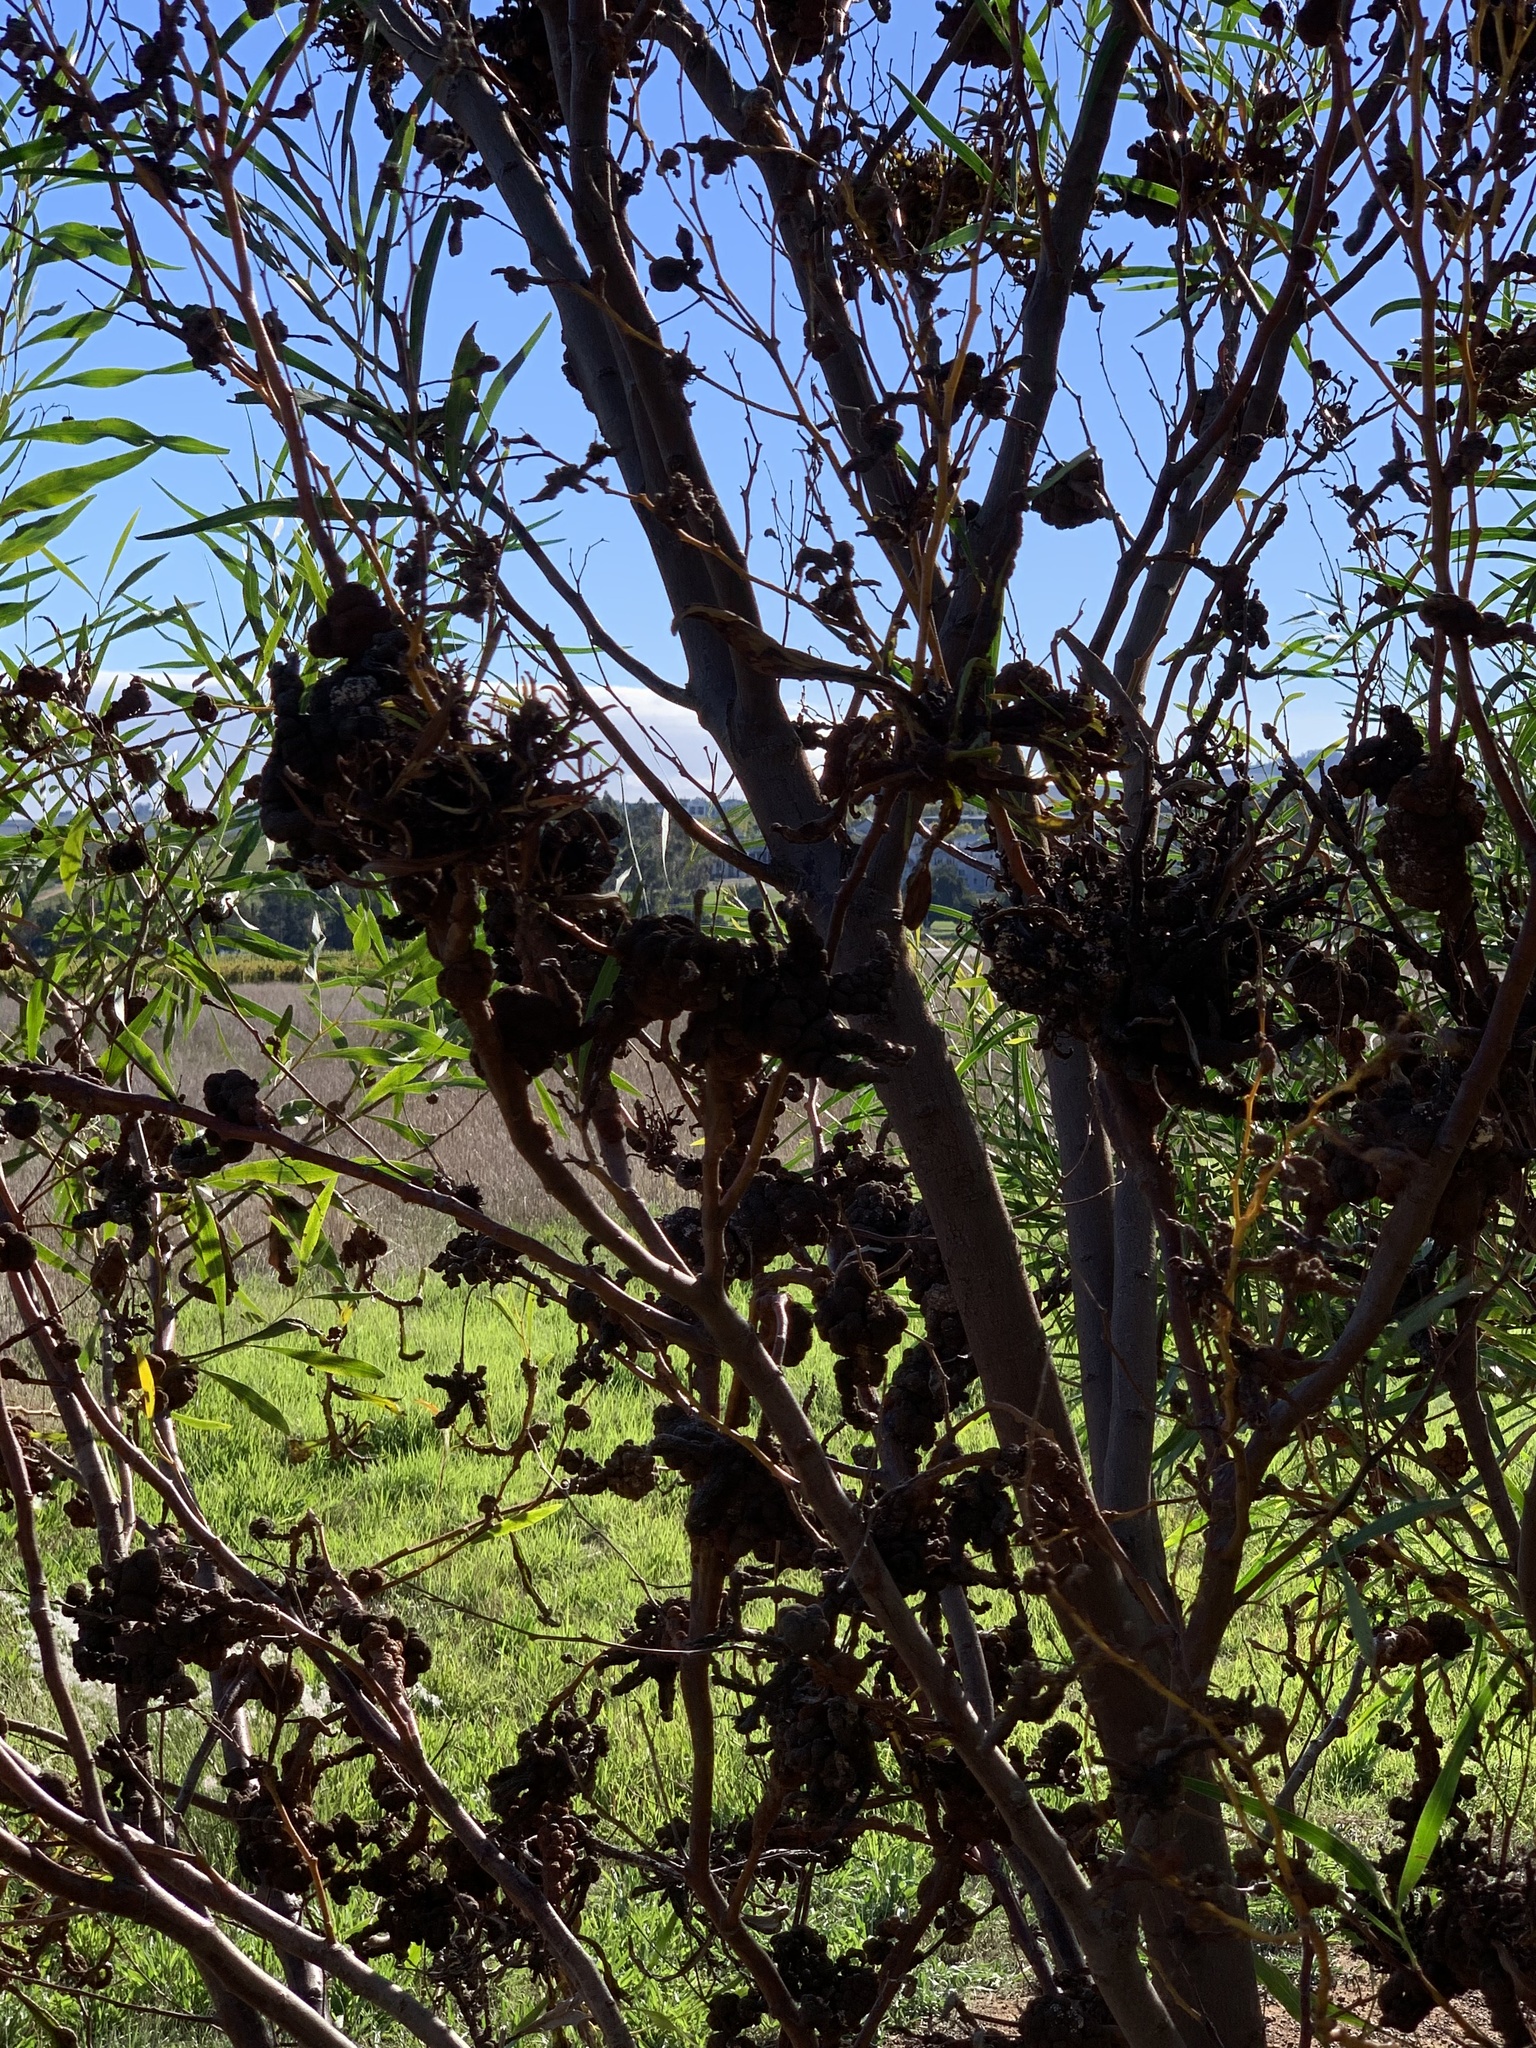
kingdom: Plantae
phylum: Tracheophyta
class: Magnoliopsida
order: Fabales
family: Fabaceae
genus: Acacia
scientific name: Acacia saligna
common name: Orange wattle
